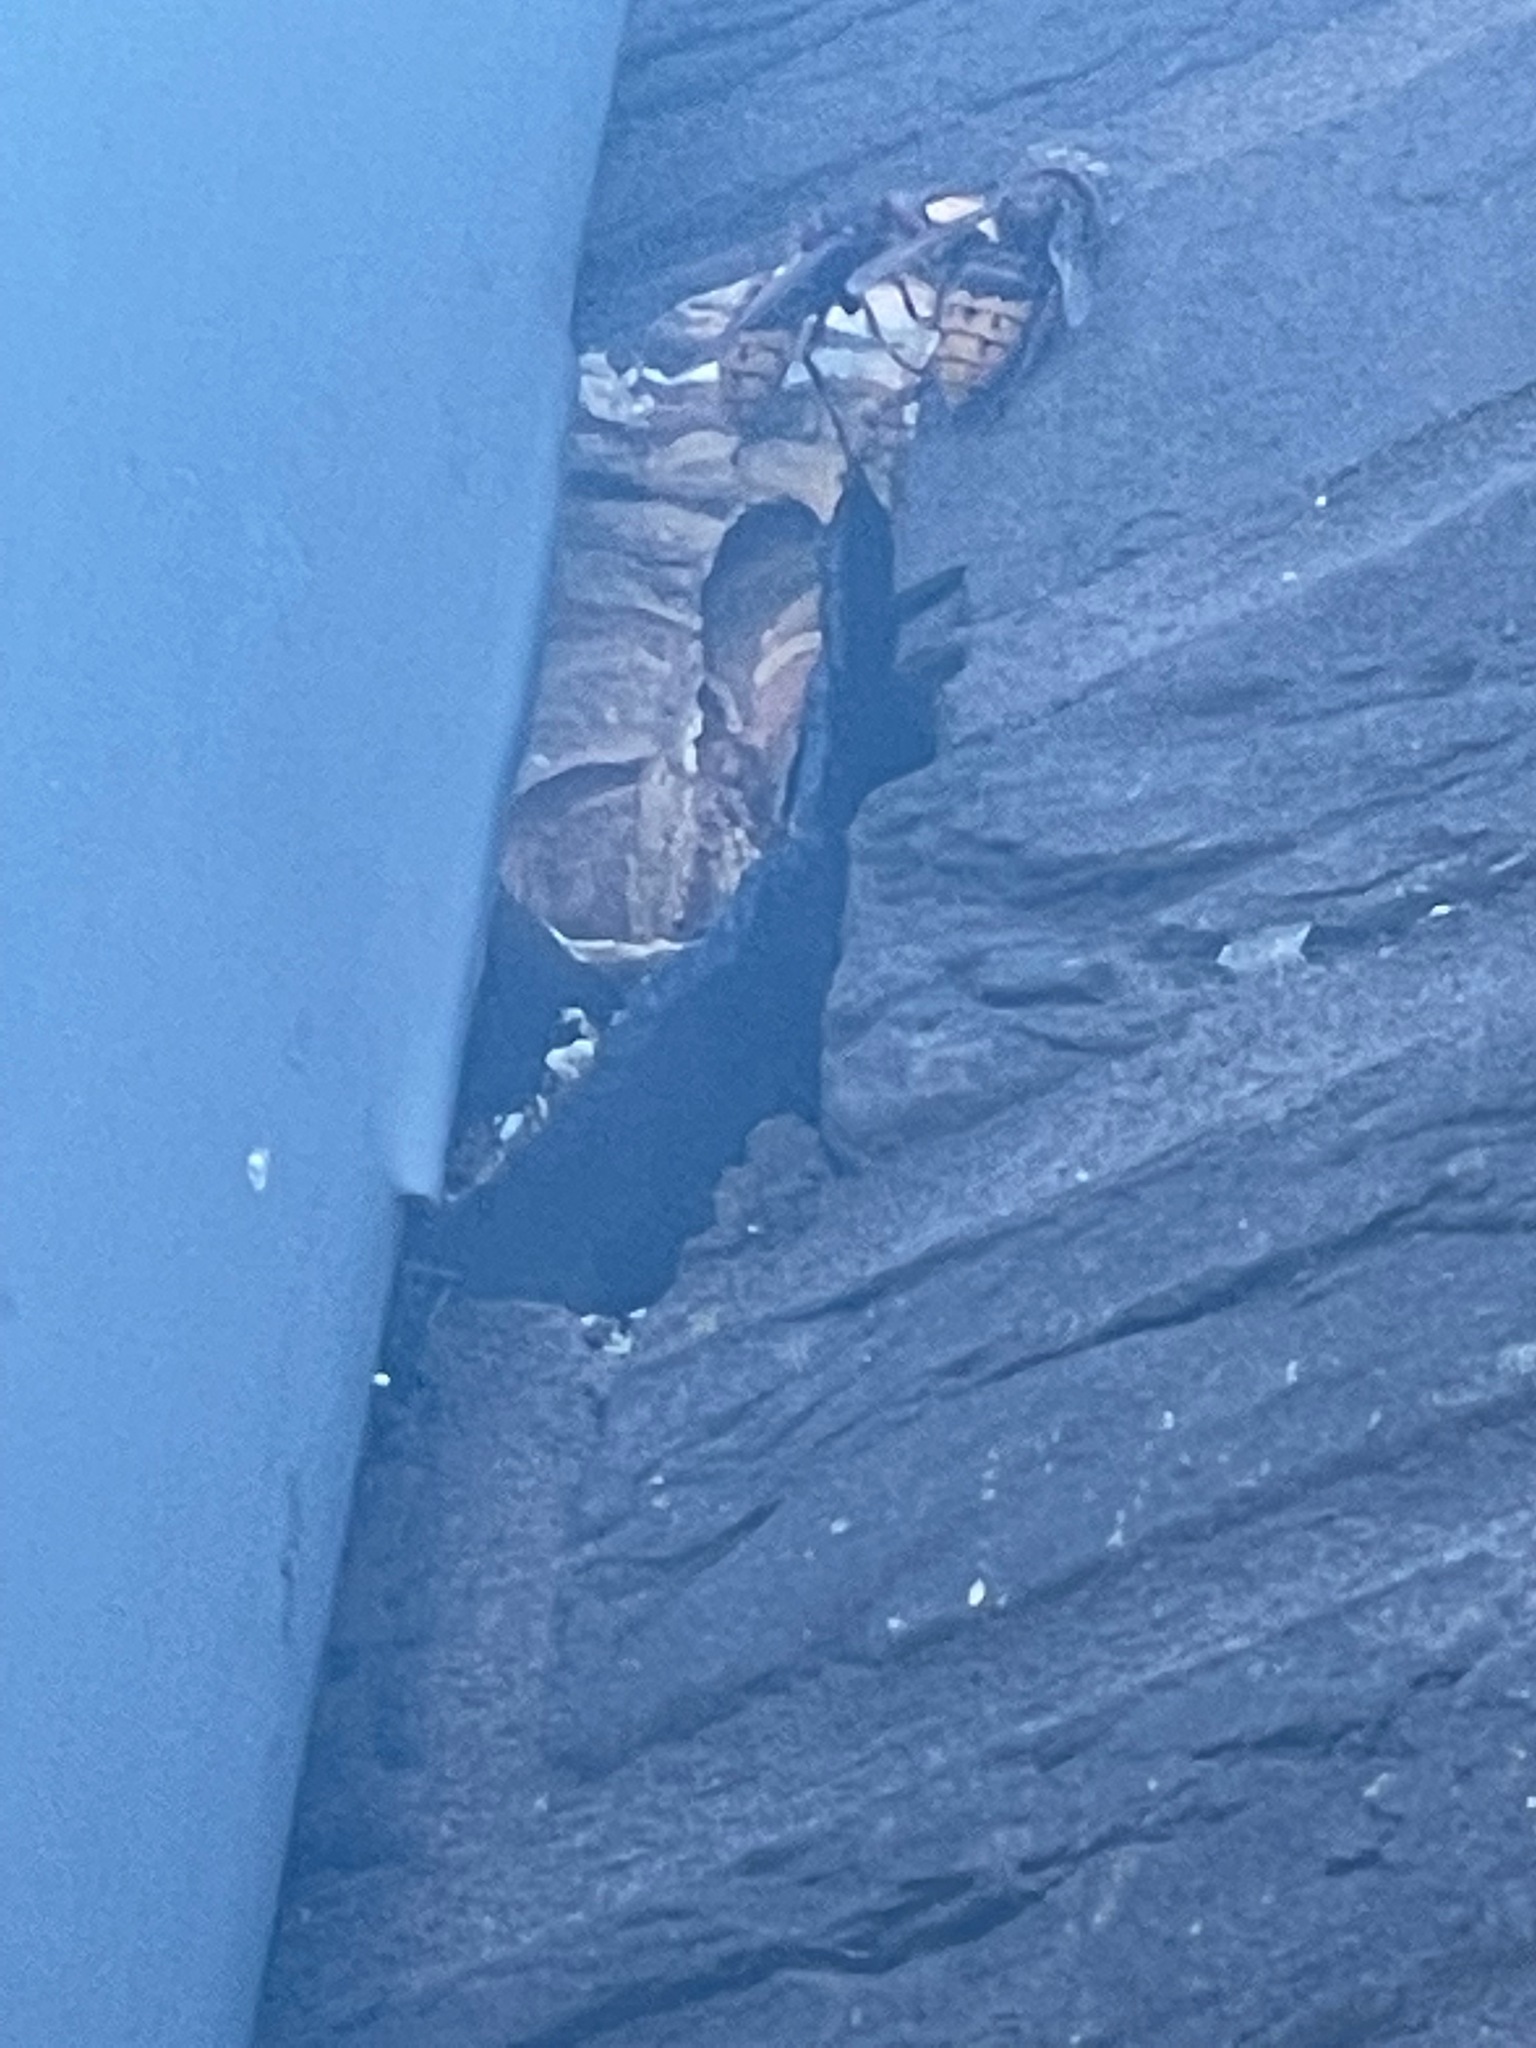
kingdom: Animalia
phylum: Arthropoda
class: Insecta
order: Hymenoptera
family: Vespidae
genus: Vespa
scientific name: Vespa crabro
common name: Hornet
